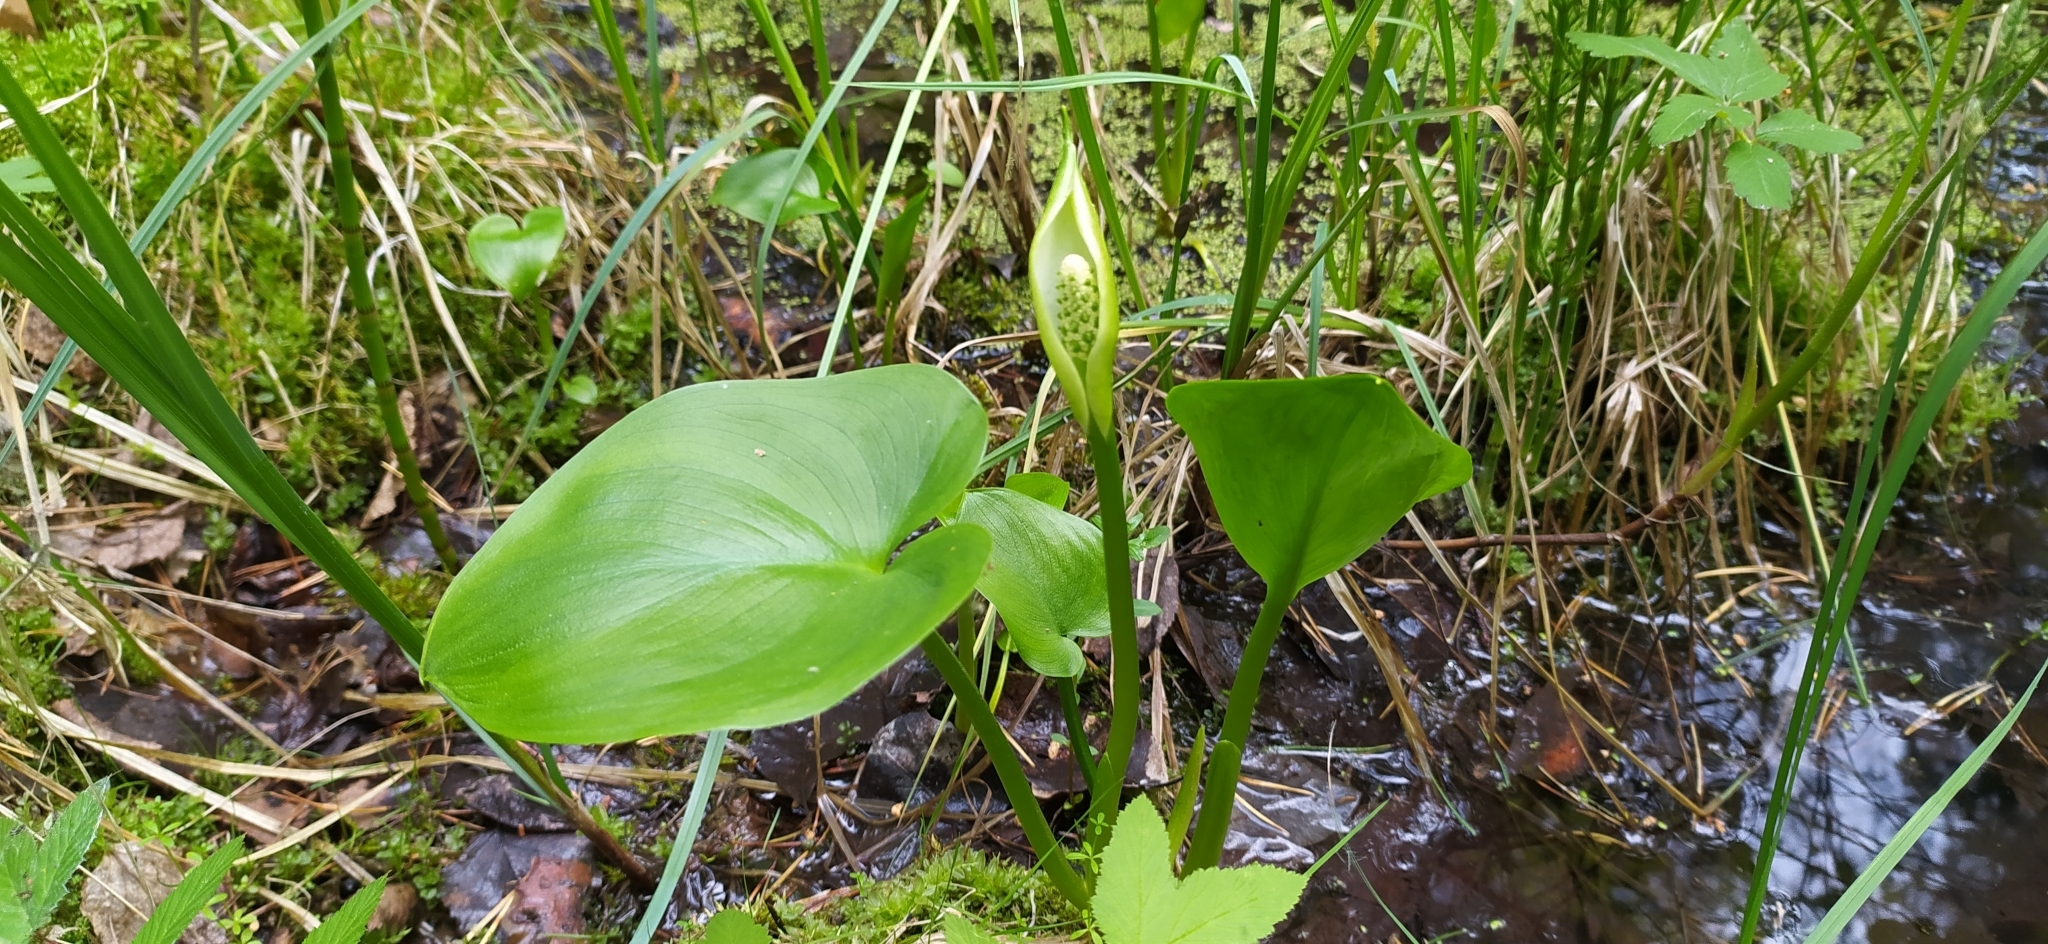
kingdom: Plantae
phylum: Tracheophyta
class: Liliopsida
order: Alismatales
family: Araceae
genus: Calla
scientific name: Calla palustris
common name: Bog arum
